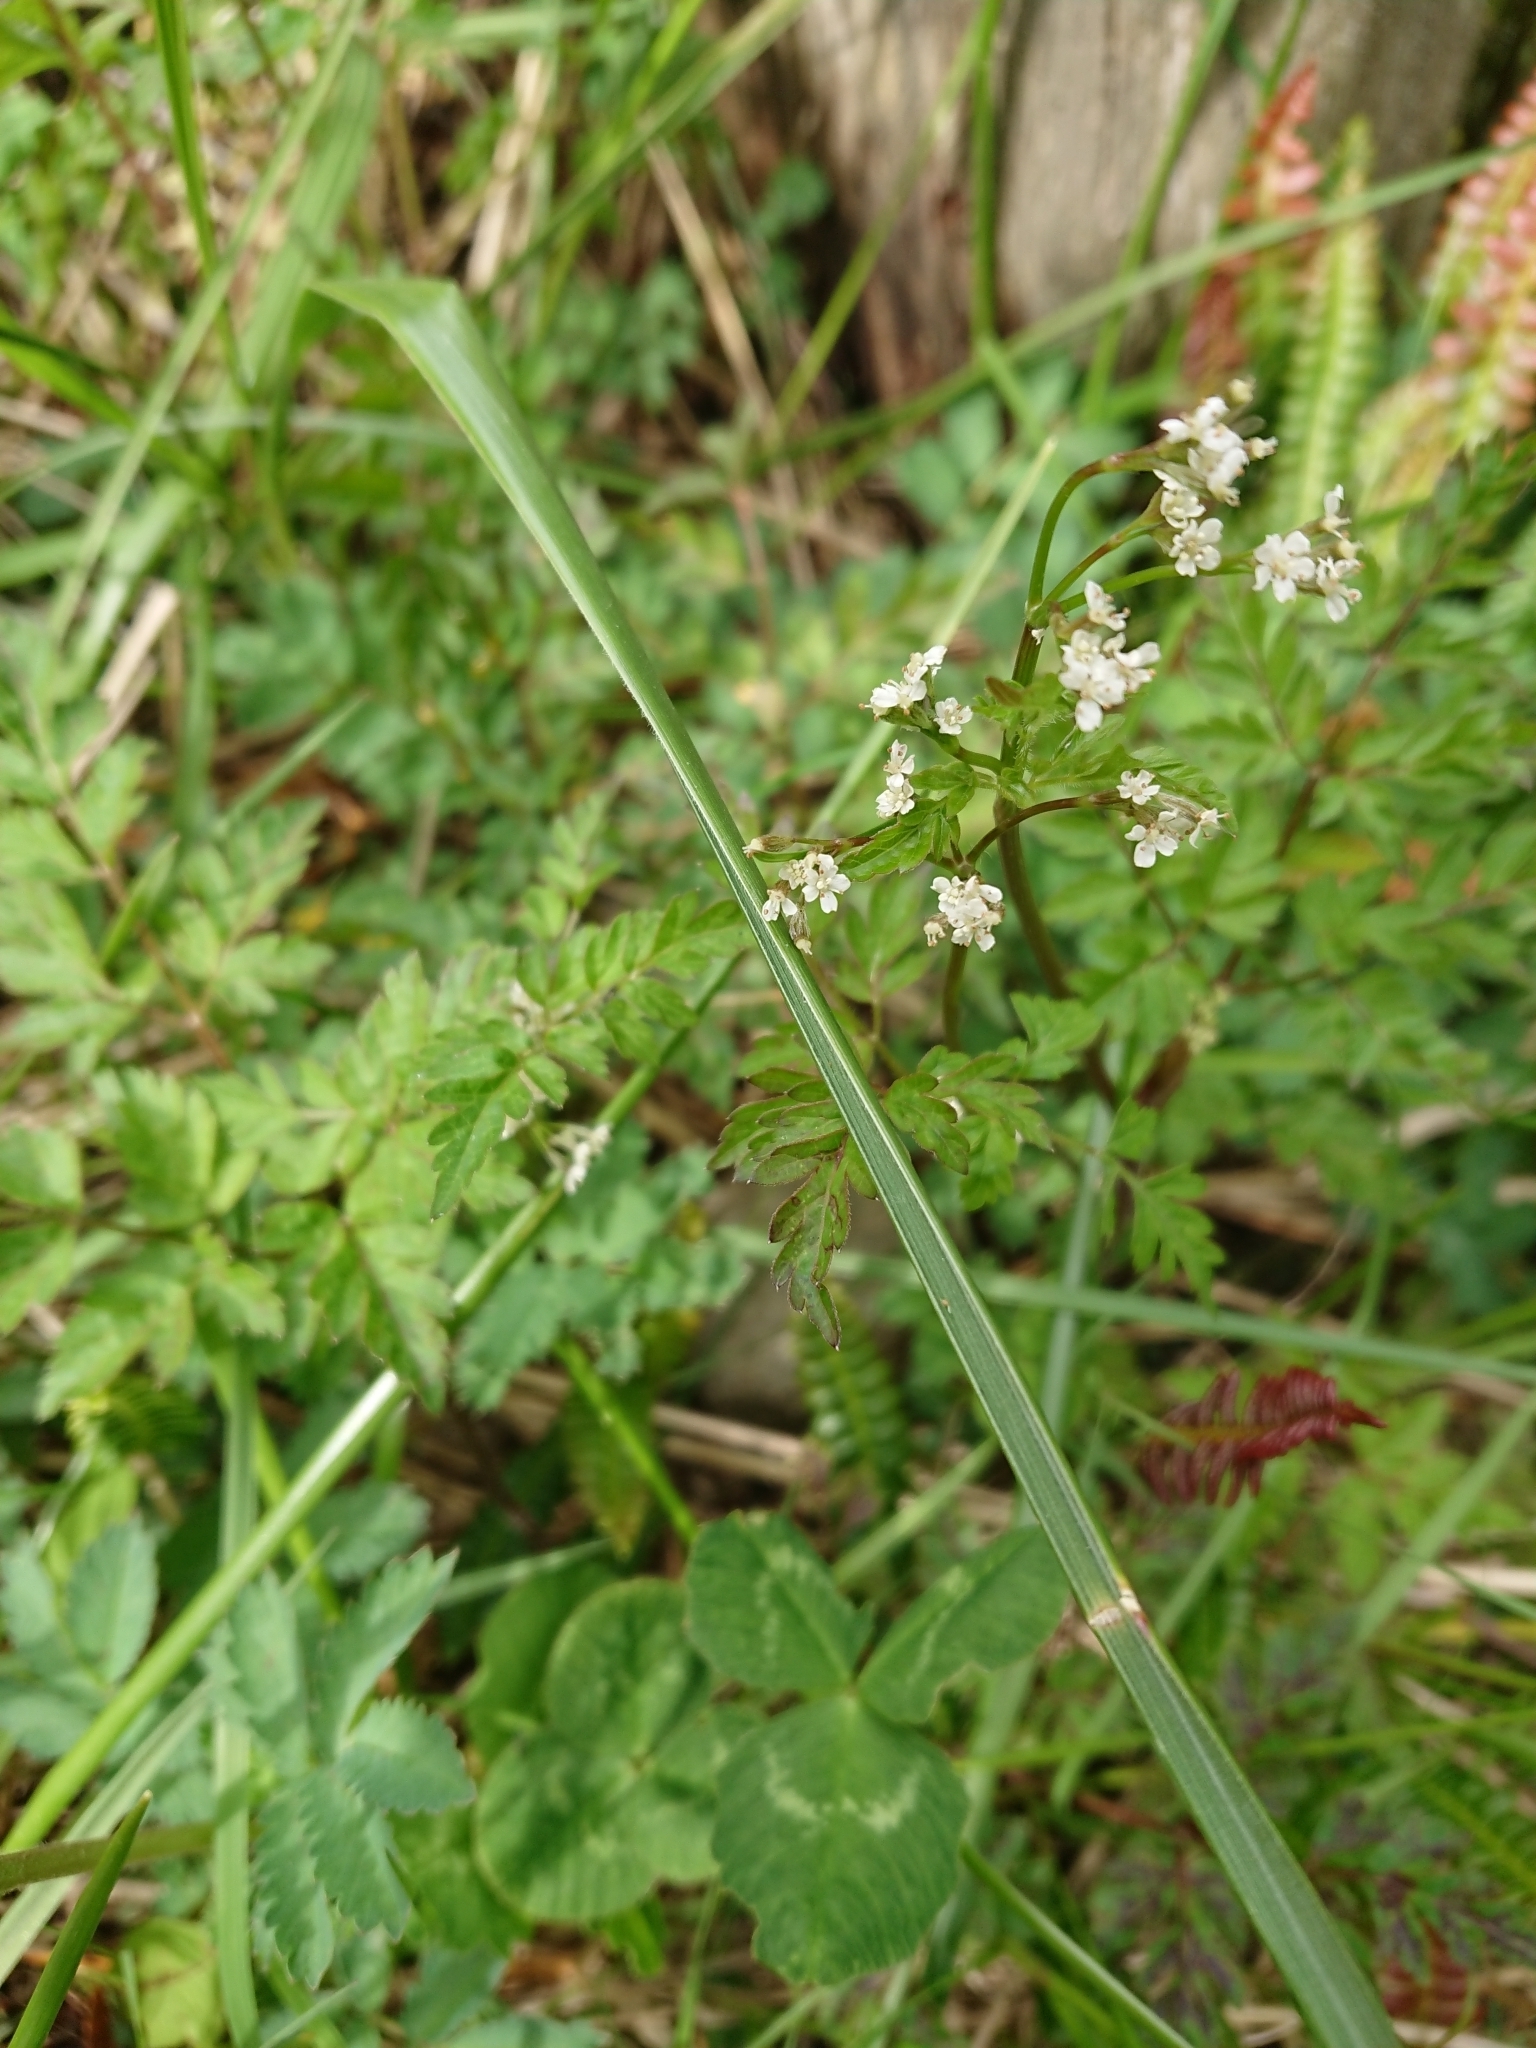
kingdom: Plantae
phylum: Tracheophyta
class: Magnoliopsida
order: Apiales
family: Apiaceae
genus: Osmorhiza
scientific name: Osmorhiza berteroi
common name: Mountain sweet cicely
